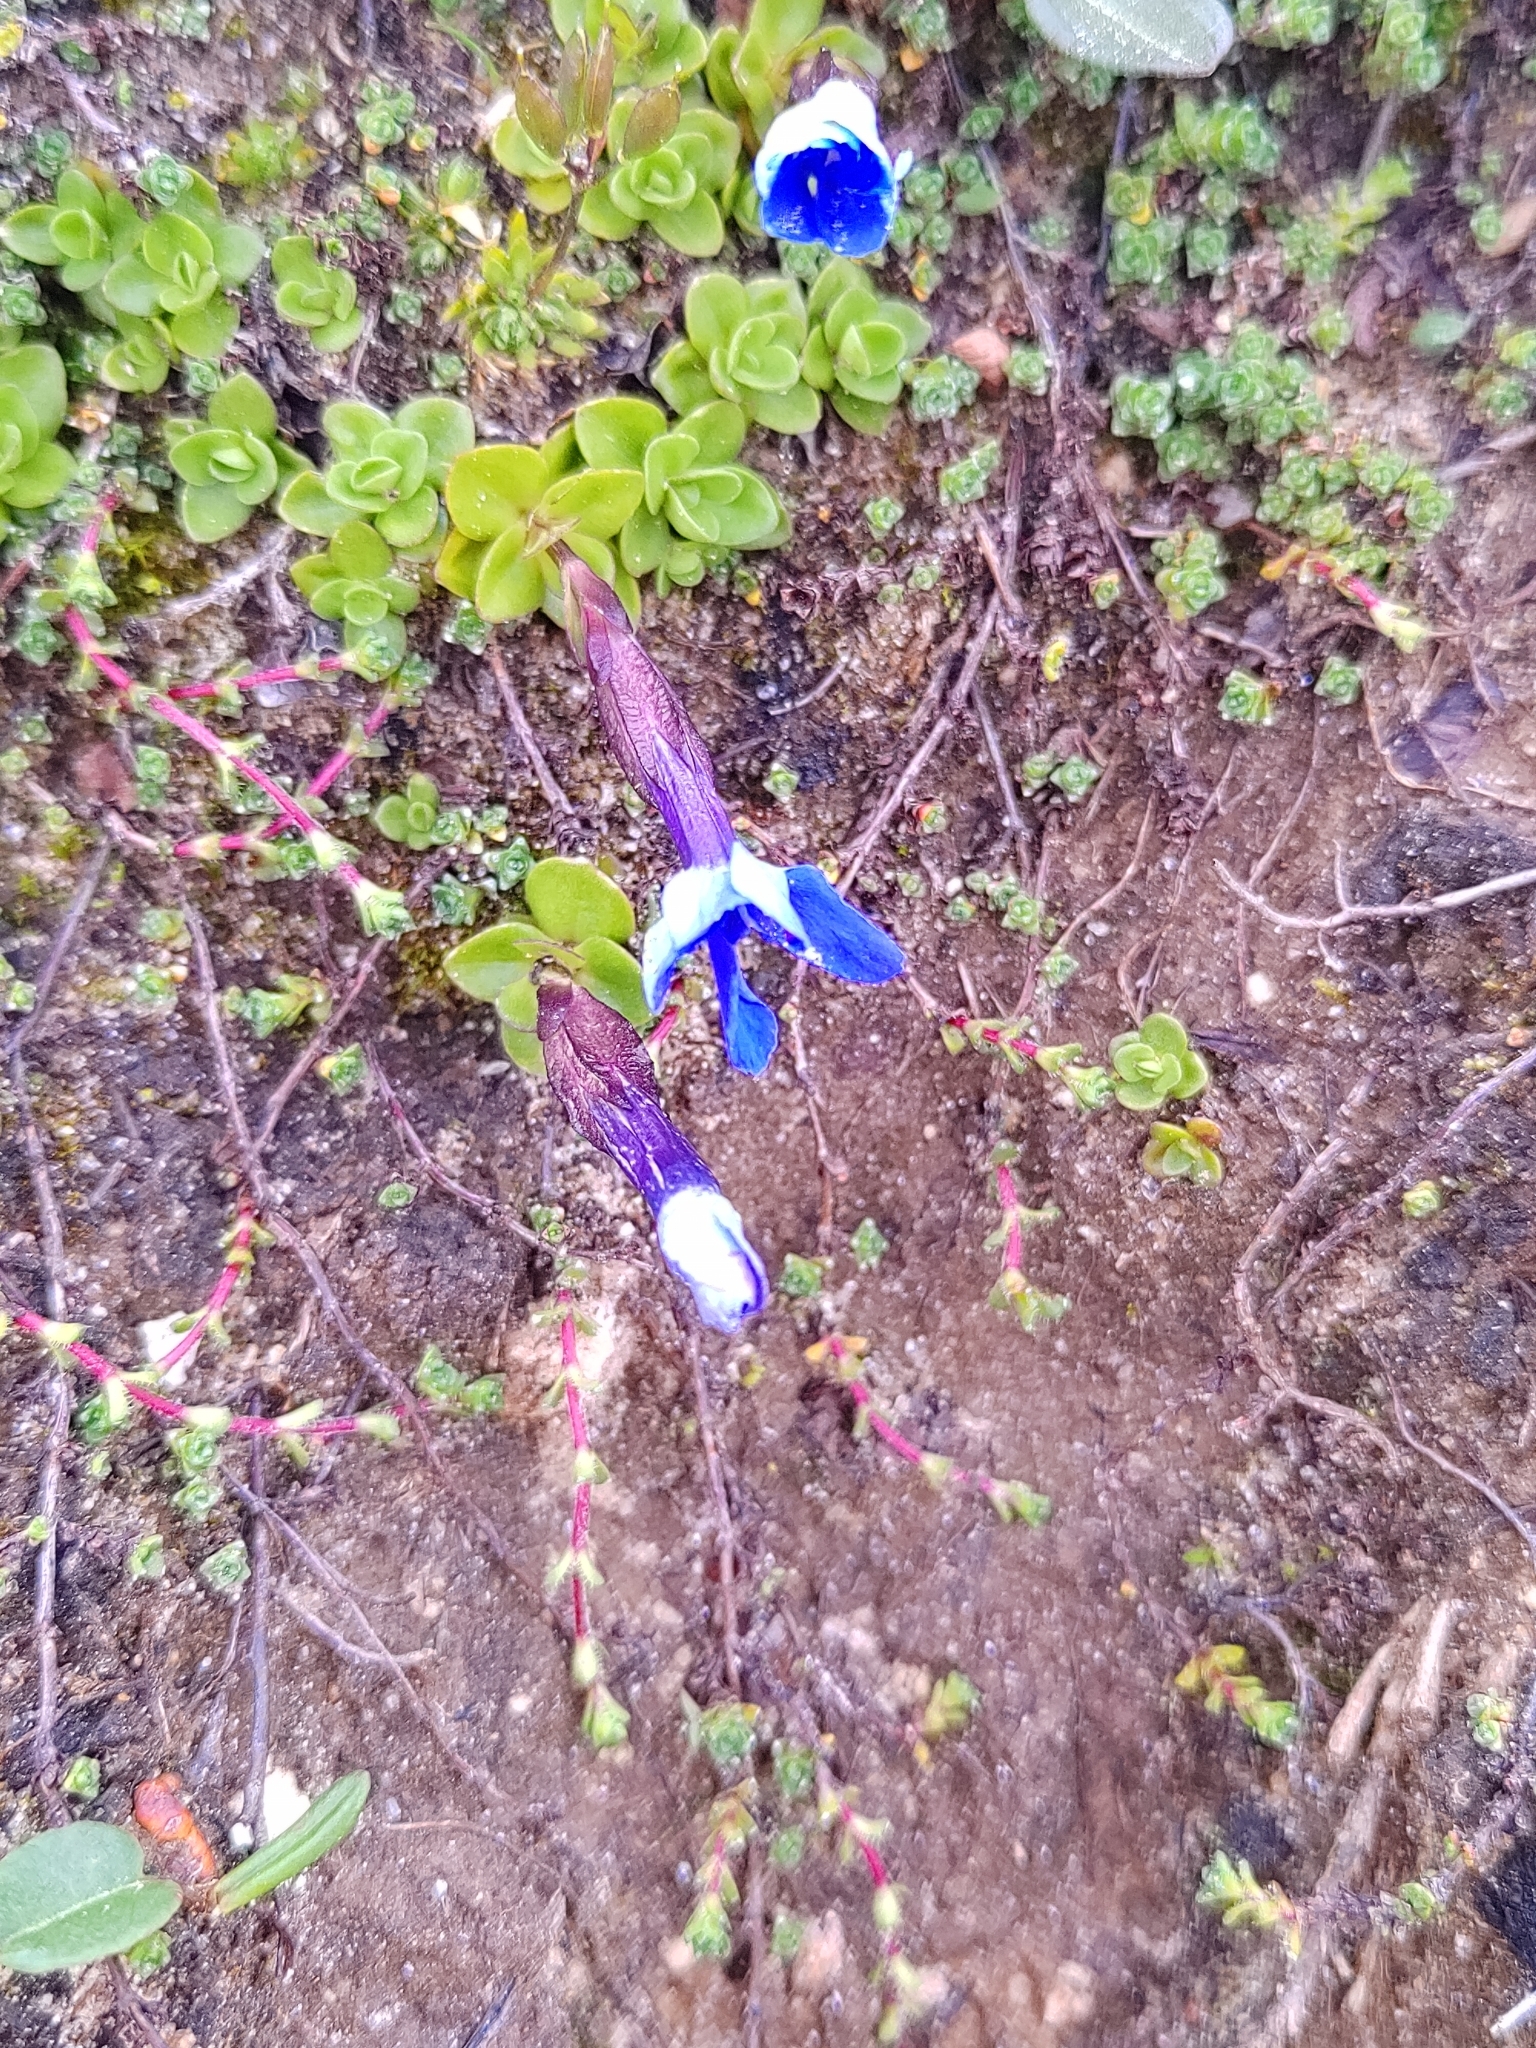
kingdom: Plantae
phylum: Tracheophyta
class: Magnoliopsida
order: Gentianales
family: Gentianaceae
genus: Gentiana
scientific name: Gentiana orbicularis
